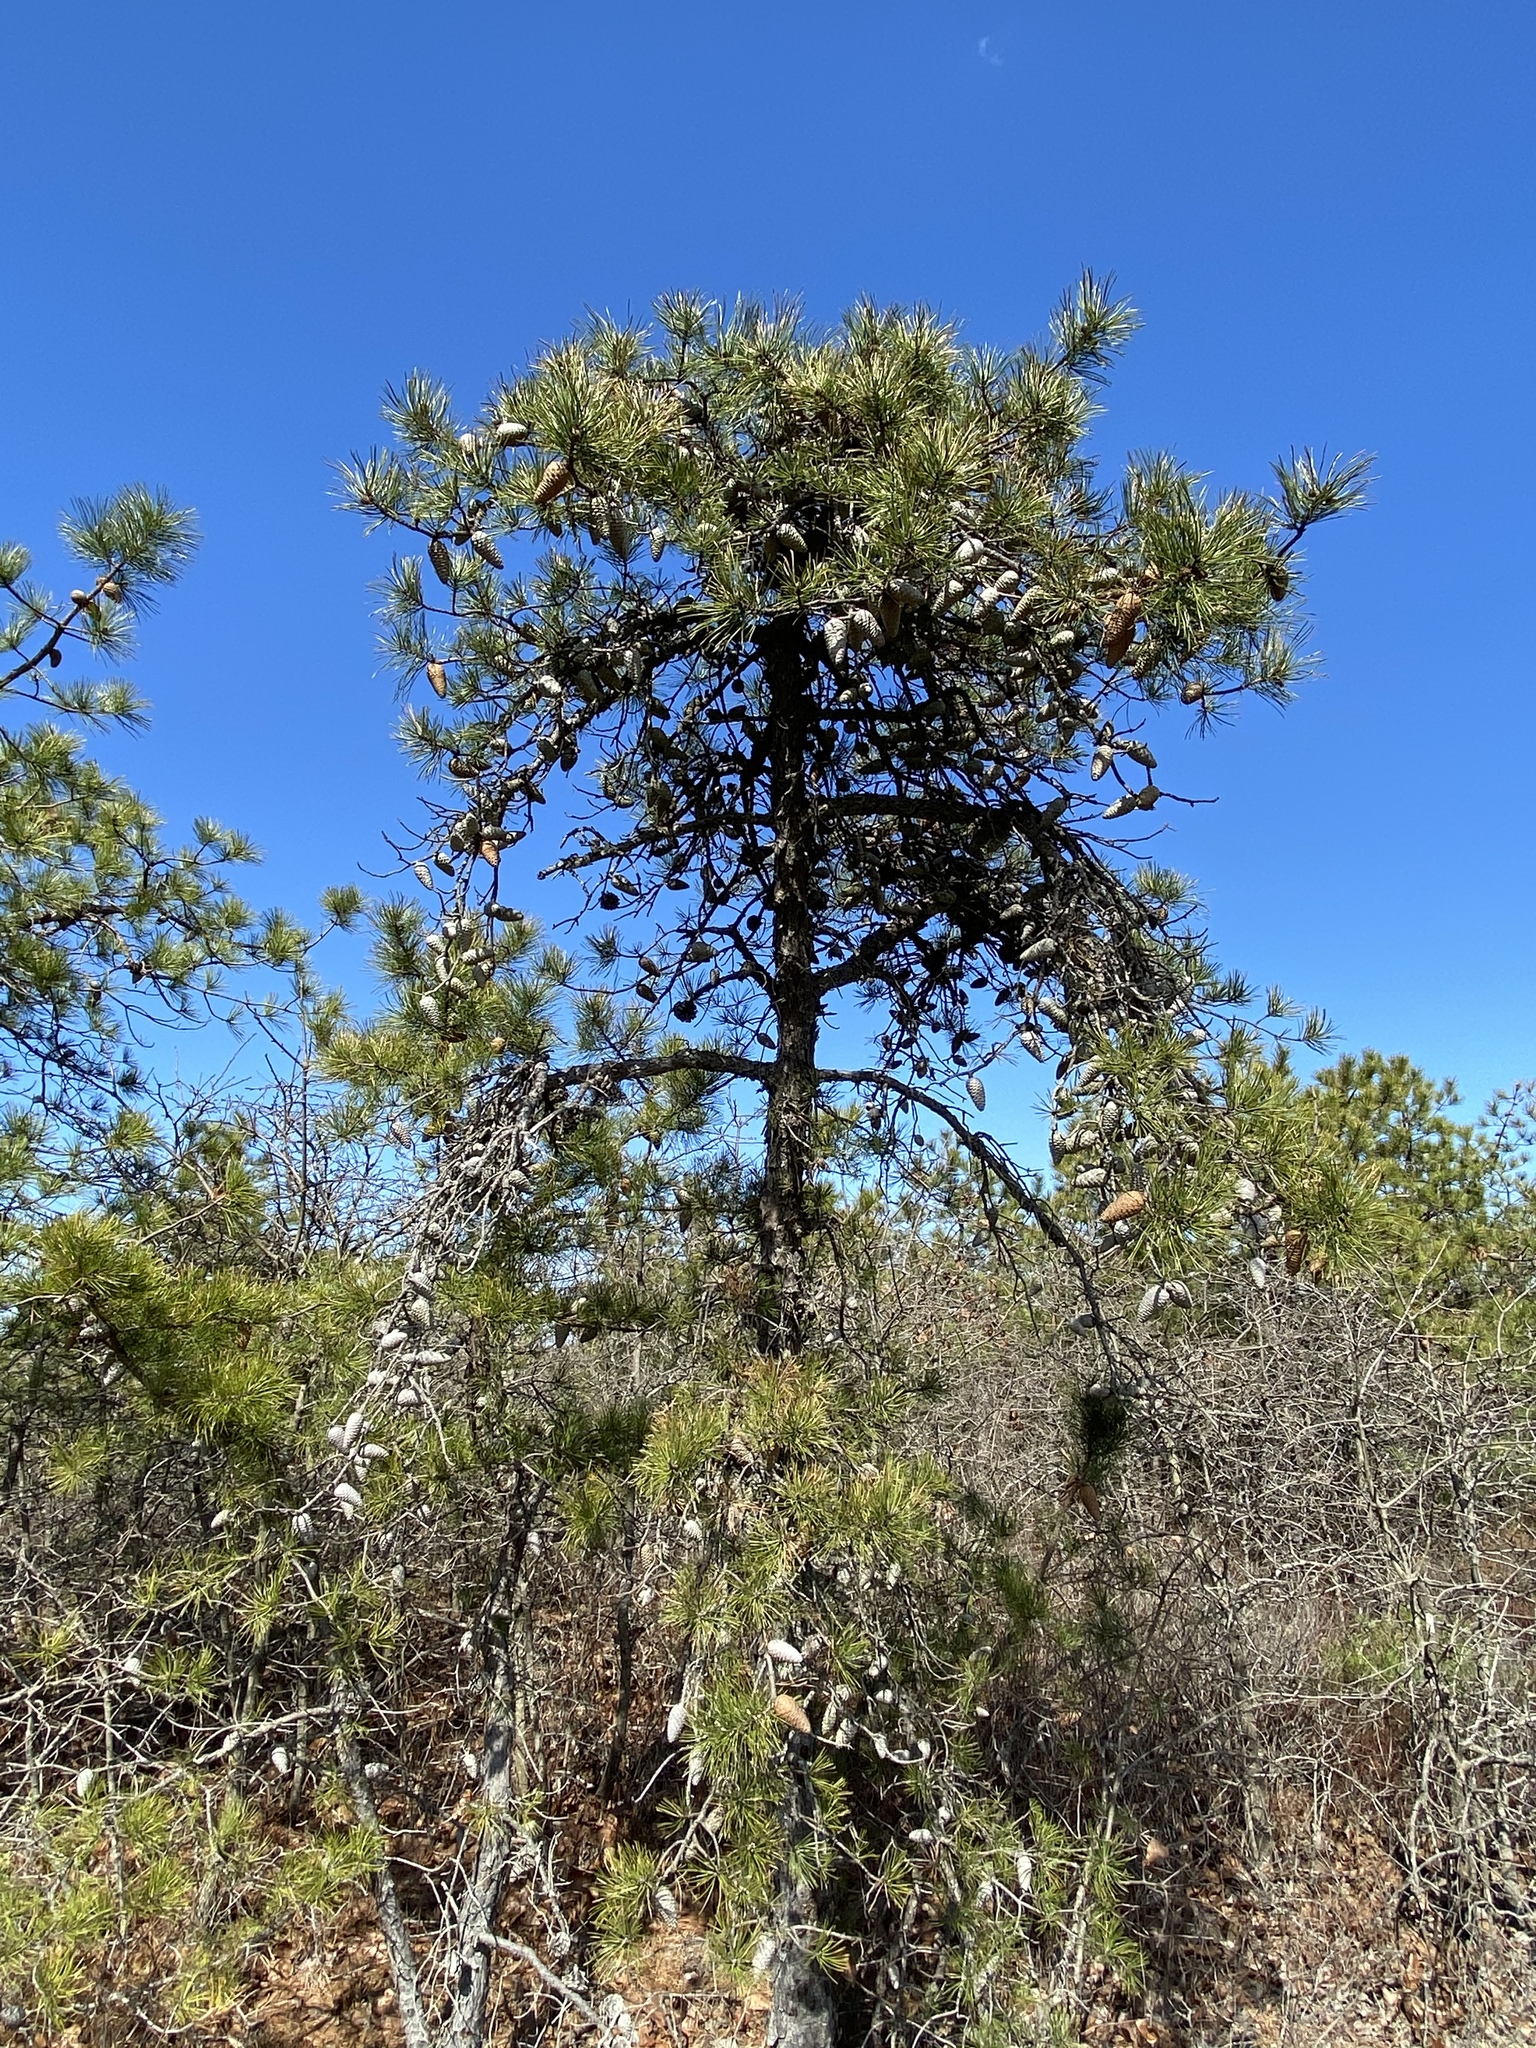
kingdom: Plantae
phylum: Tracheophyta
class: Pinopsida
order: Pinales
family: Pinaceae
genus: Pinus
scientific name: Pinus rigida
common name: Pitch pine
